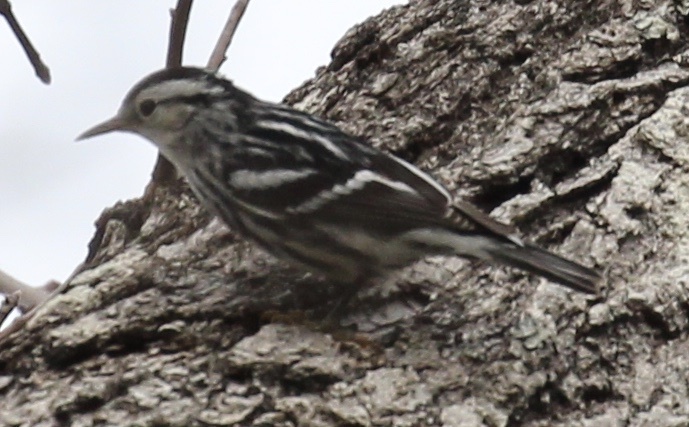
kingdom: Animalia
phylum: Chordata
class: Aves
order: Passeriformes
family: Parulidae
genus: Mniotilta
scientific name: Mniotilta varia
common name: Black-and-white warbler
